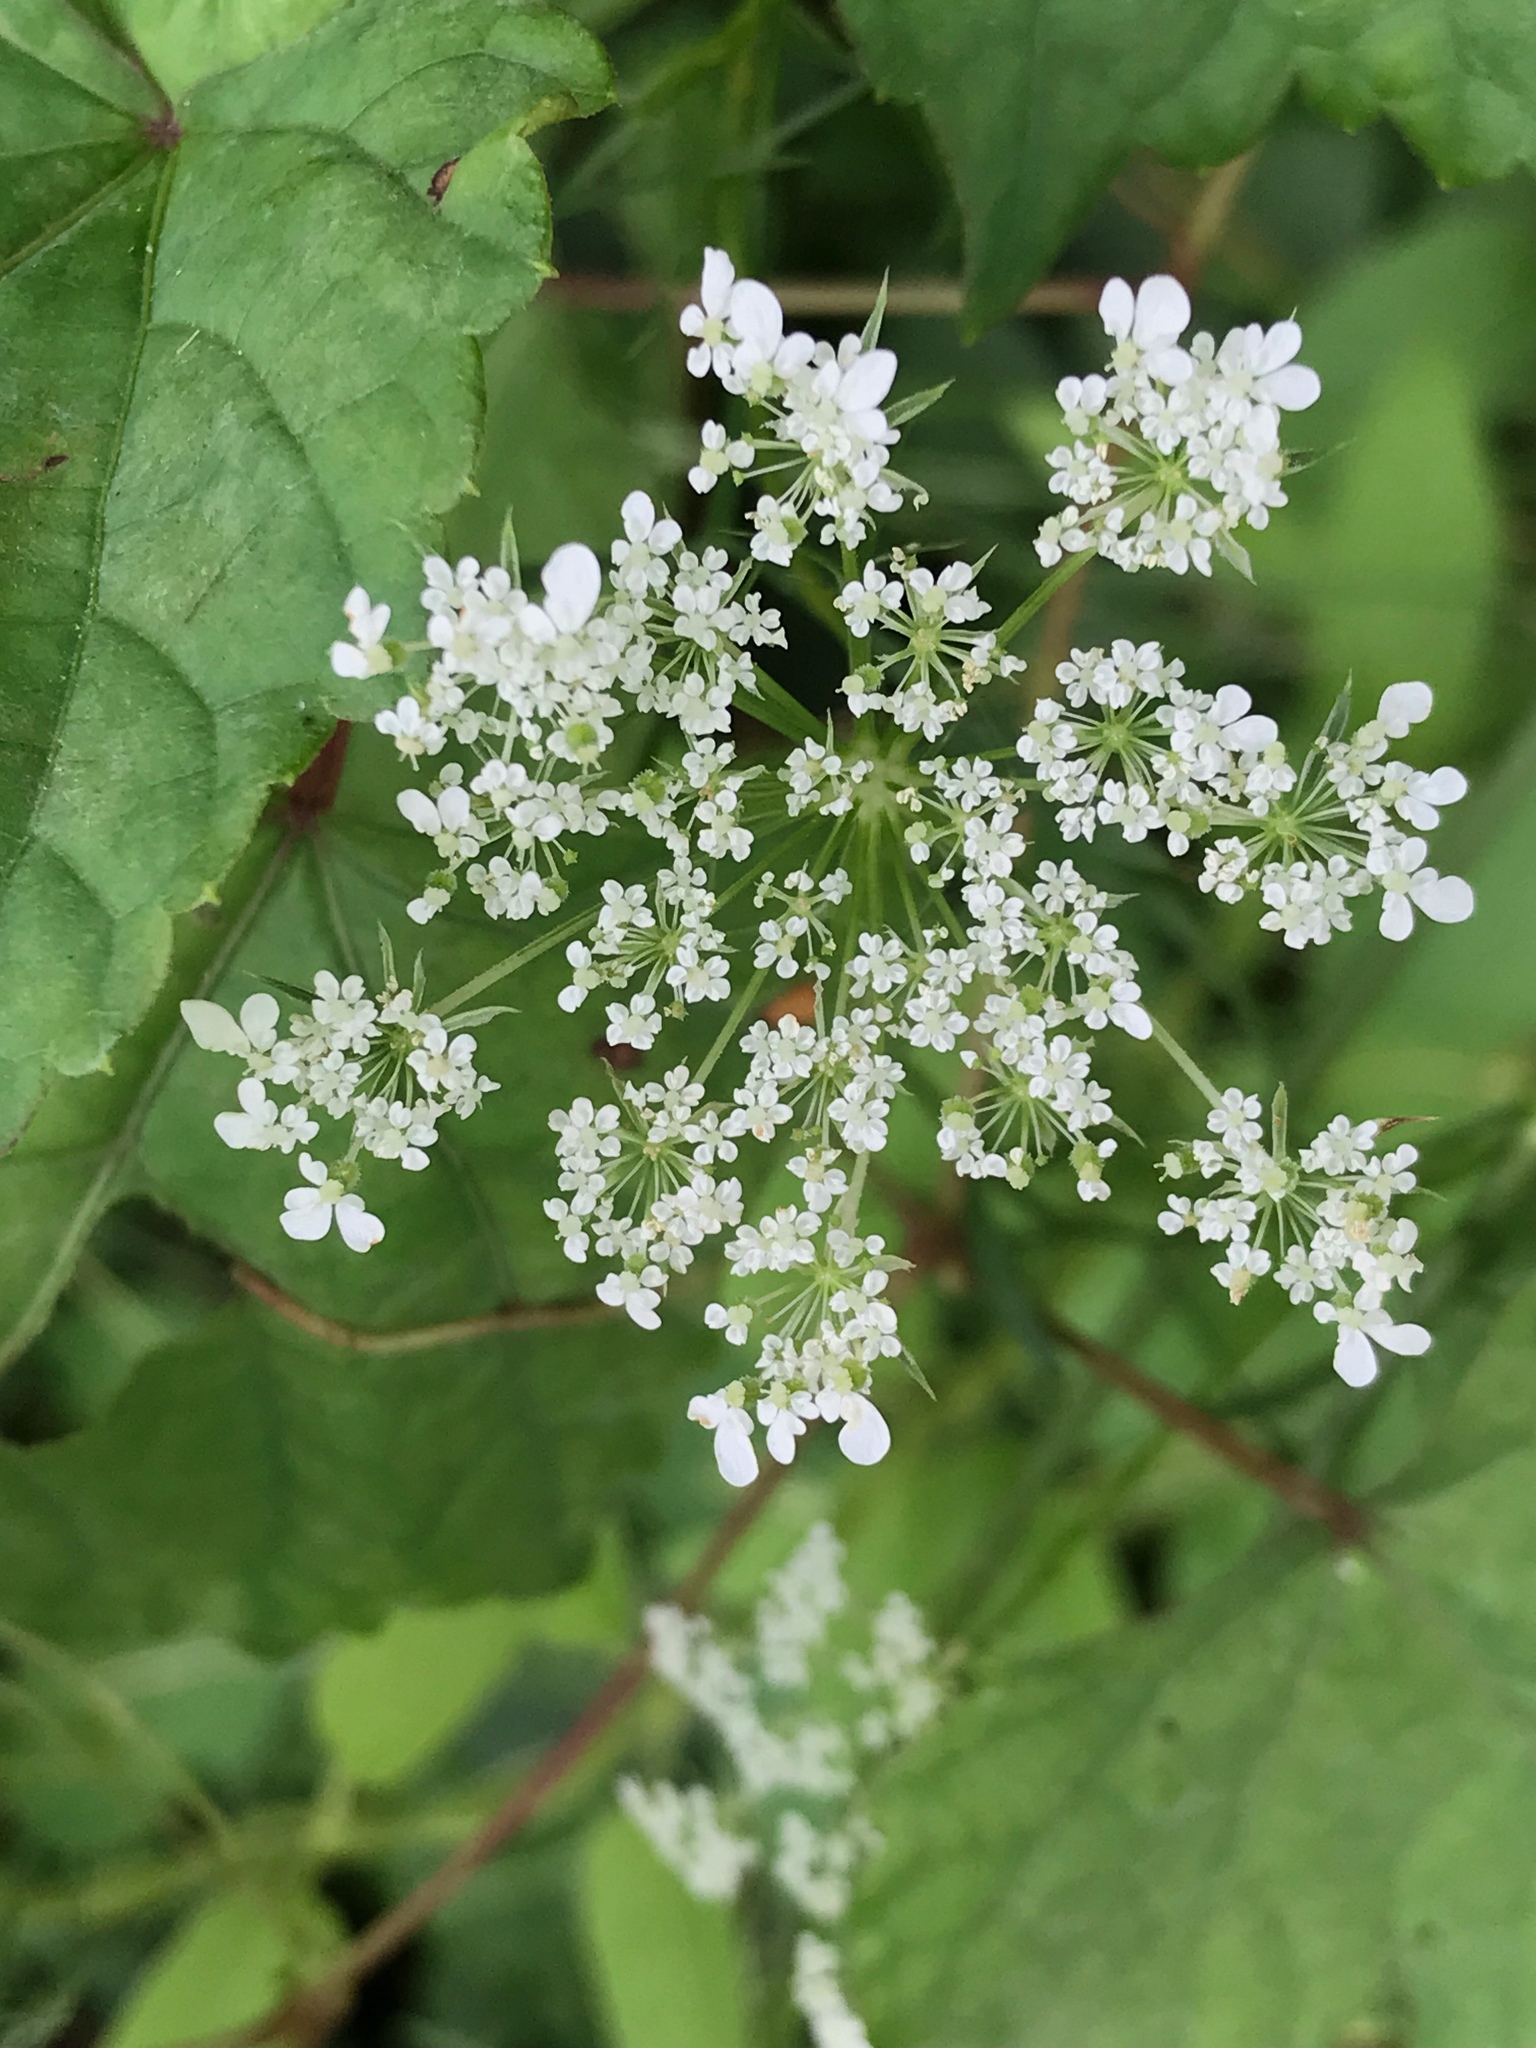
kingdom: Plantae
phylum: Tracheophyta
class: Magnoliopsida
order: Apiales
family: Apiaceae
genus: Daucus
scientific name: Daucus carota
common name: Wild carrot
